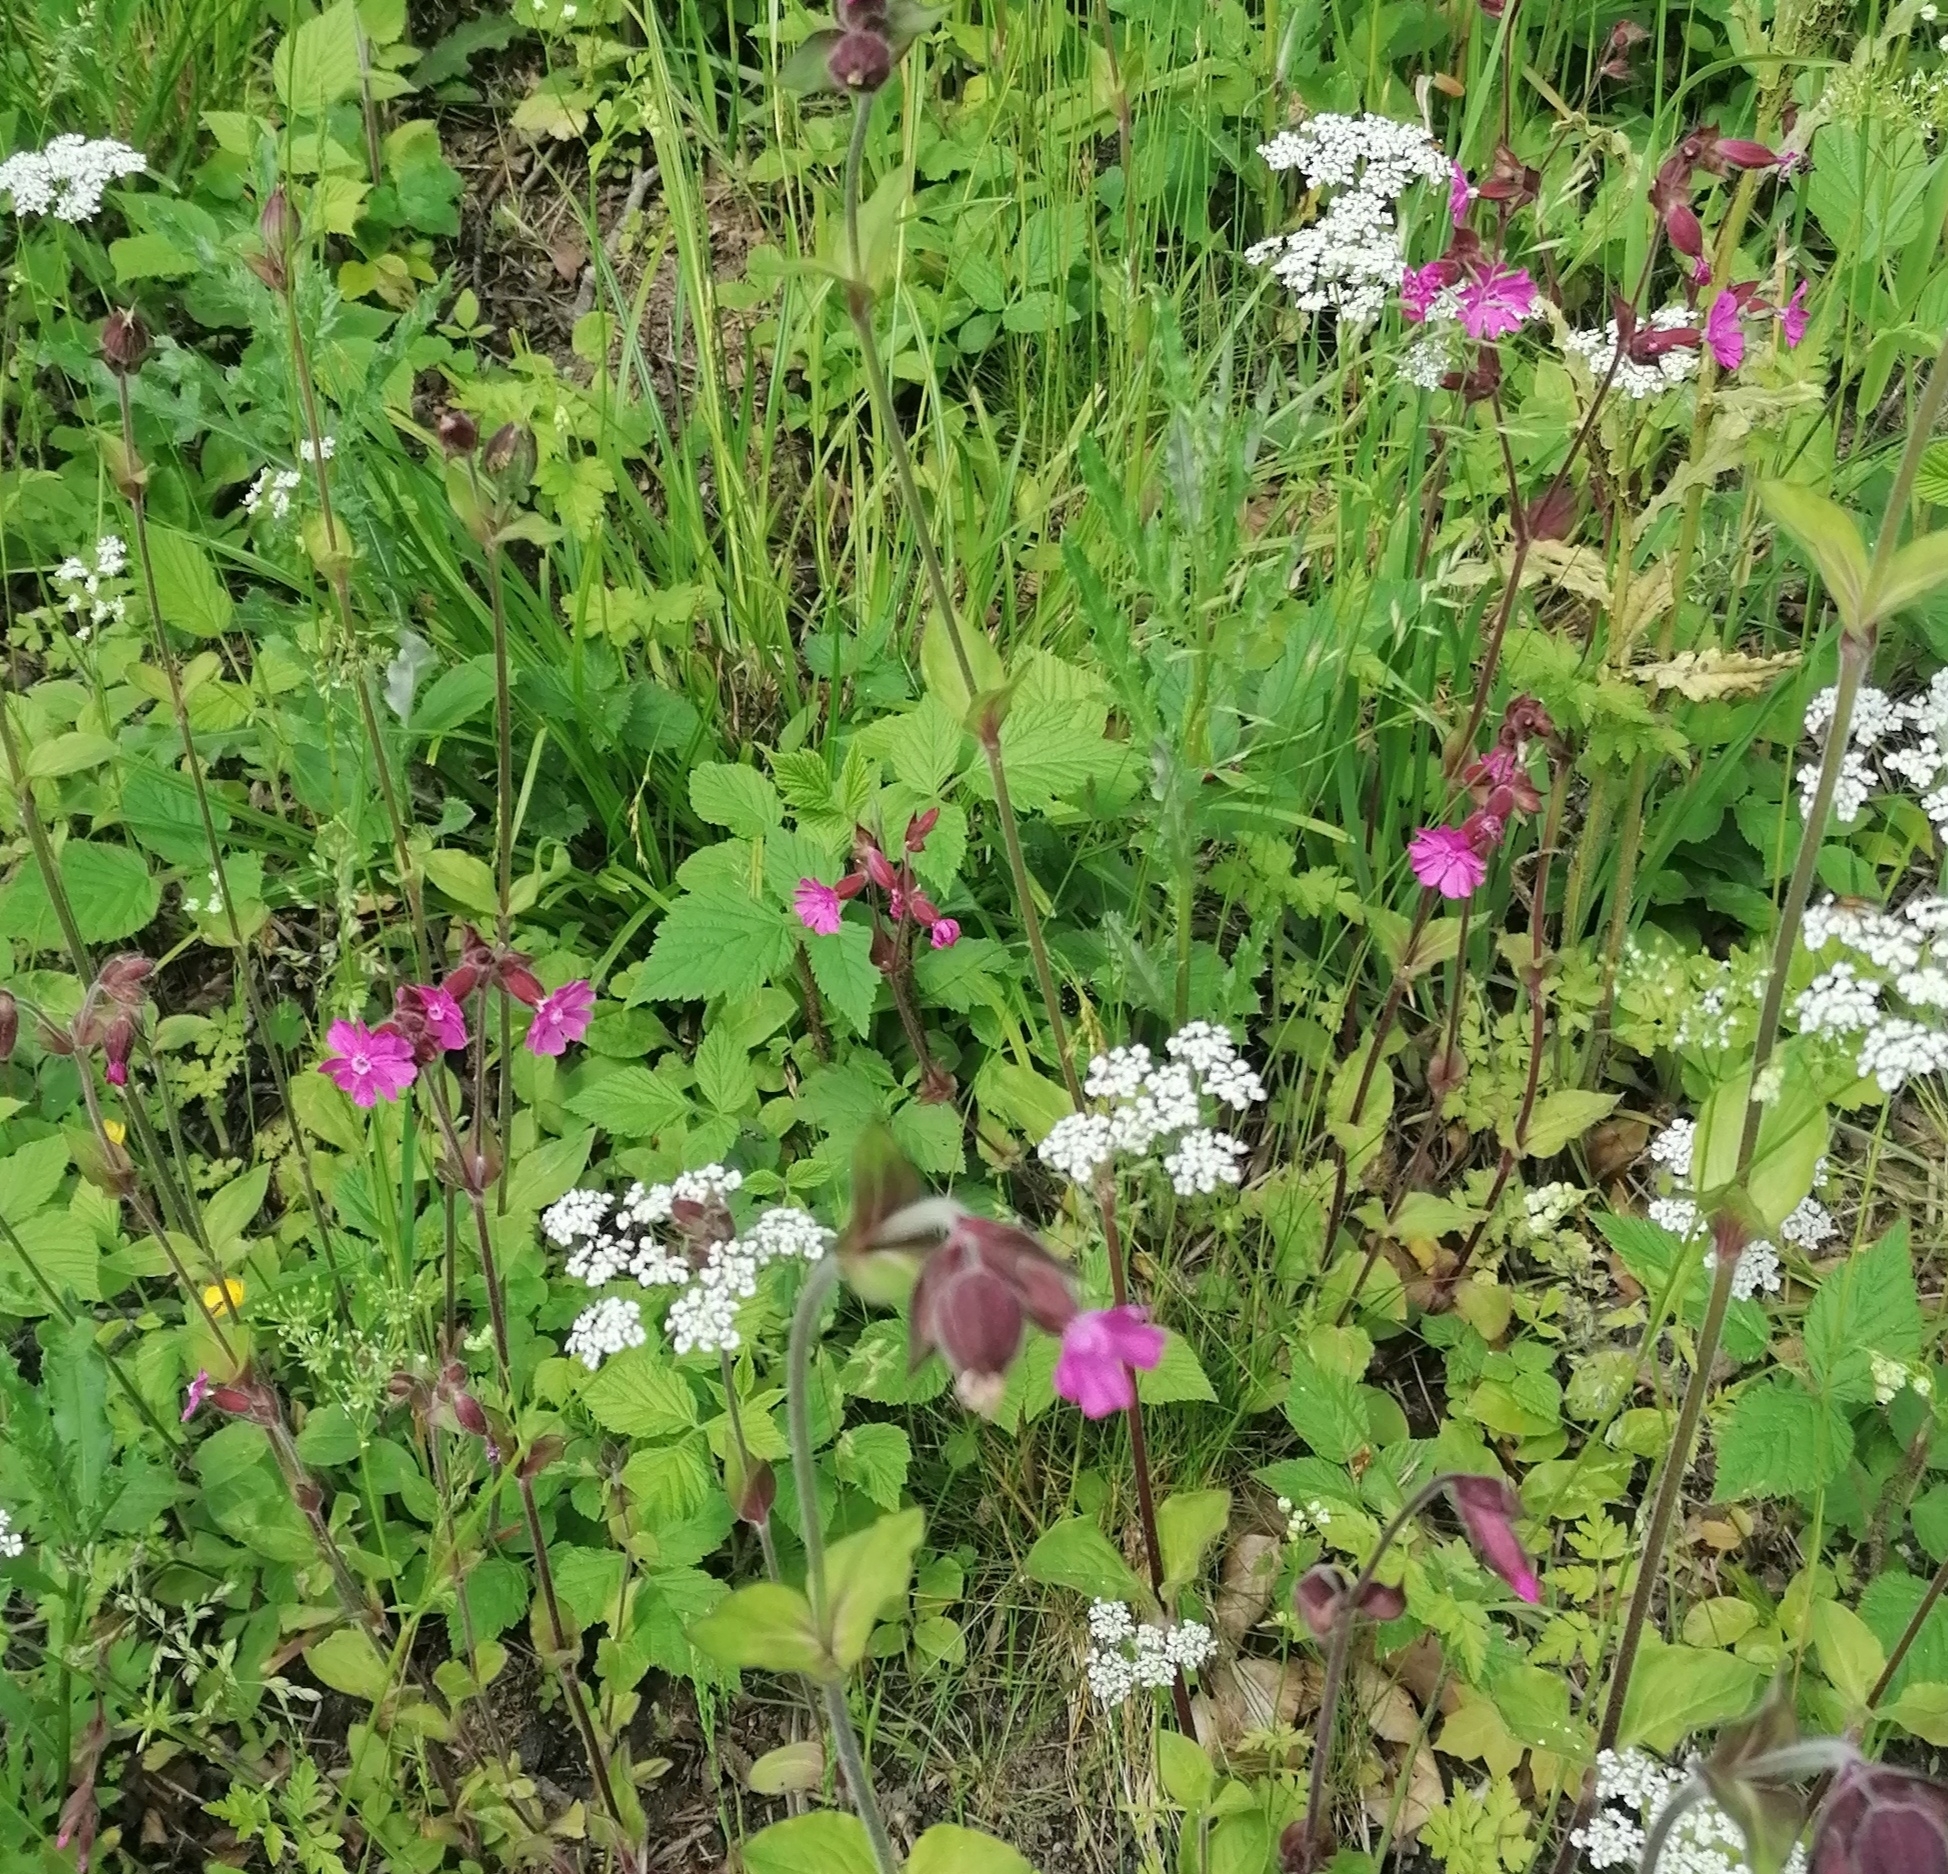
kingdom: Plantae
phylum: Tracheophyta
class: Magnoliopsida
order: Caryophyllales
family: Caryophyllaceae
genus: Silene
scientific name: Silene dioica
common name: Red campion
